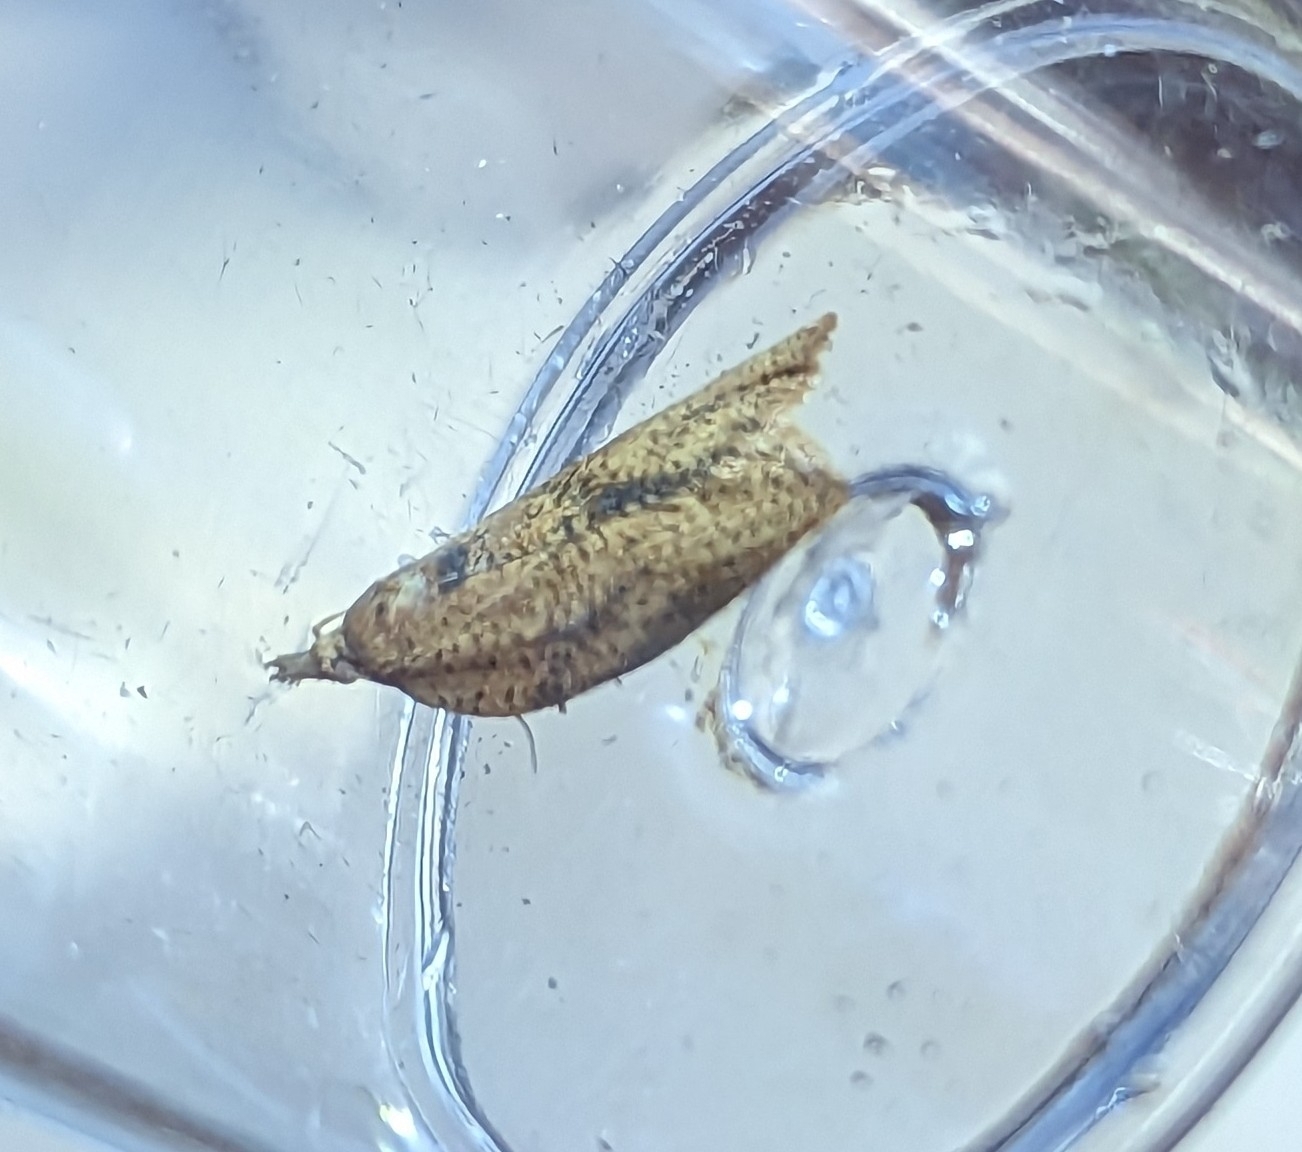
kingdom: Animalia
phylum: Arthropoda
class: Insecta
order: Lepidoptera
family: Tortricidae
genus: Epiphyas
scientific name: Epiphyas postvittana
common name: Light brown apple moth
